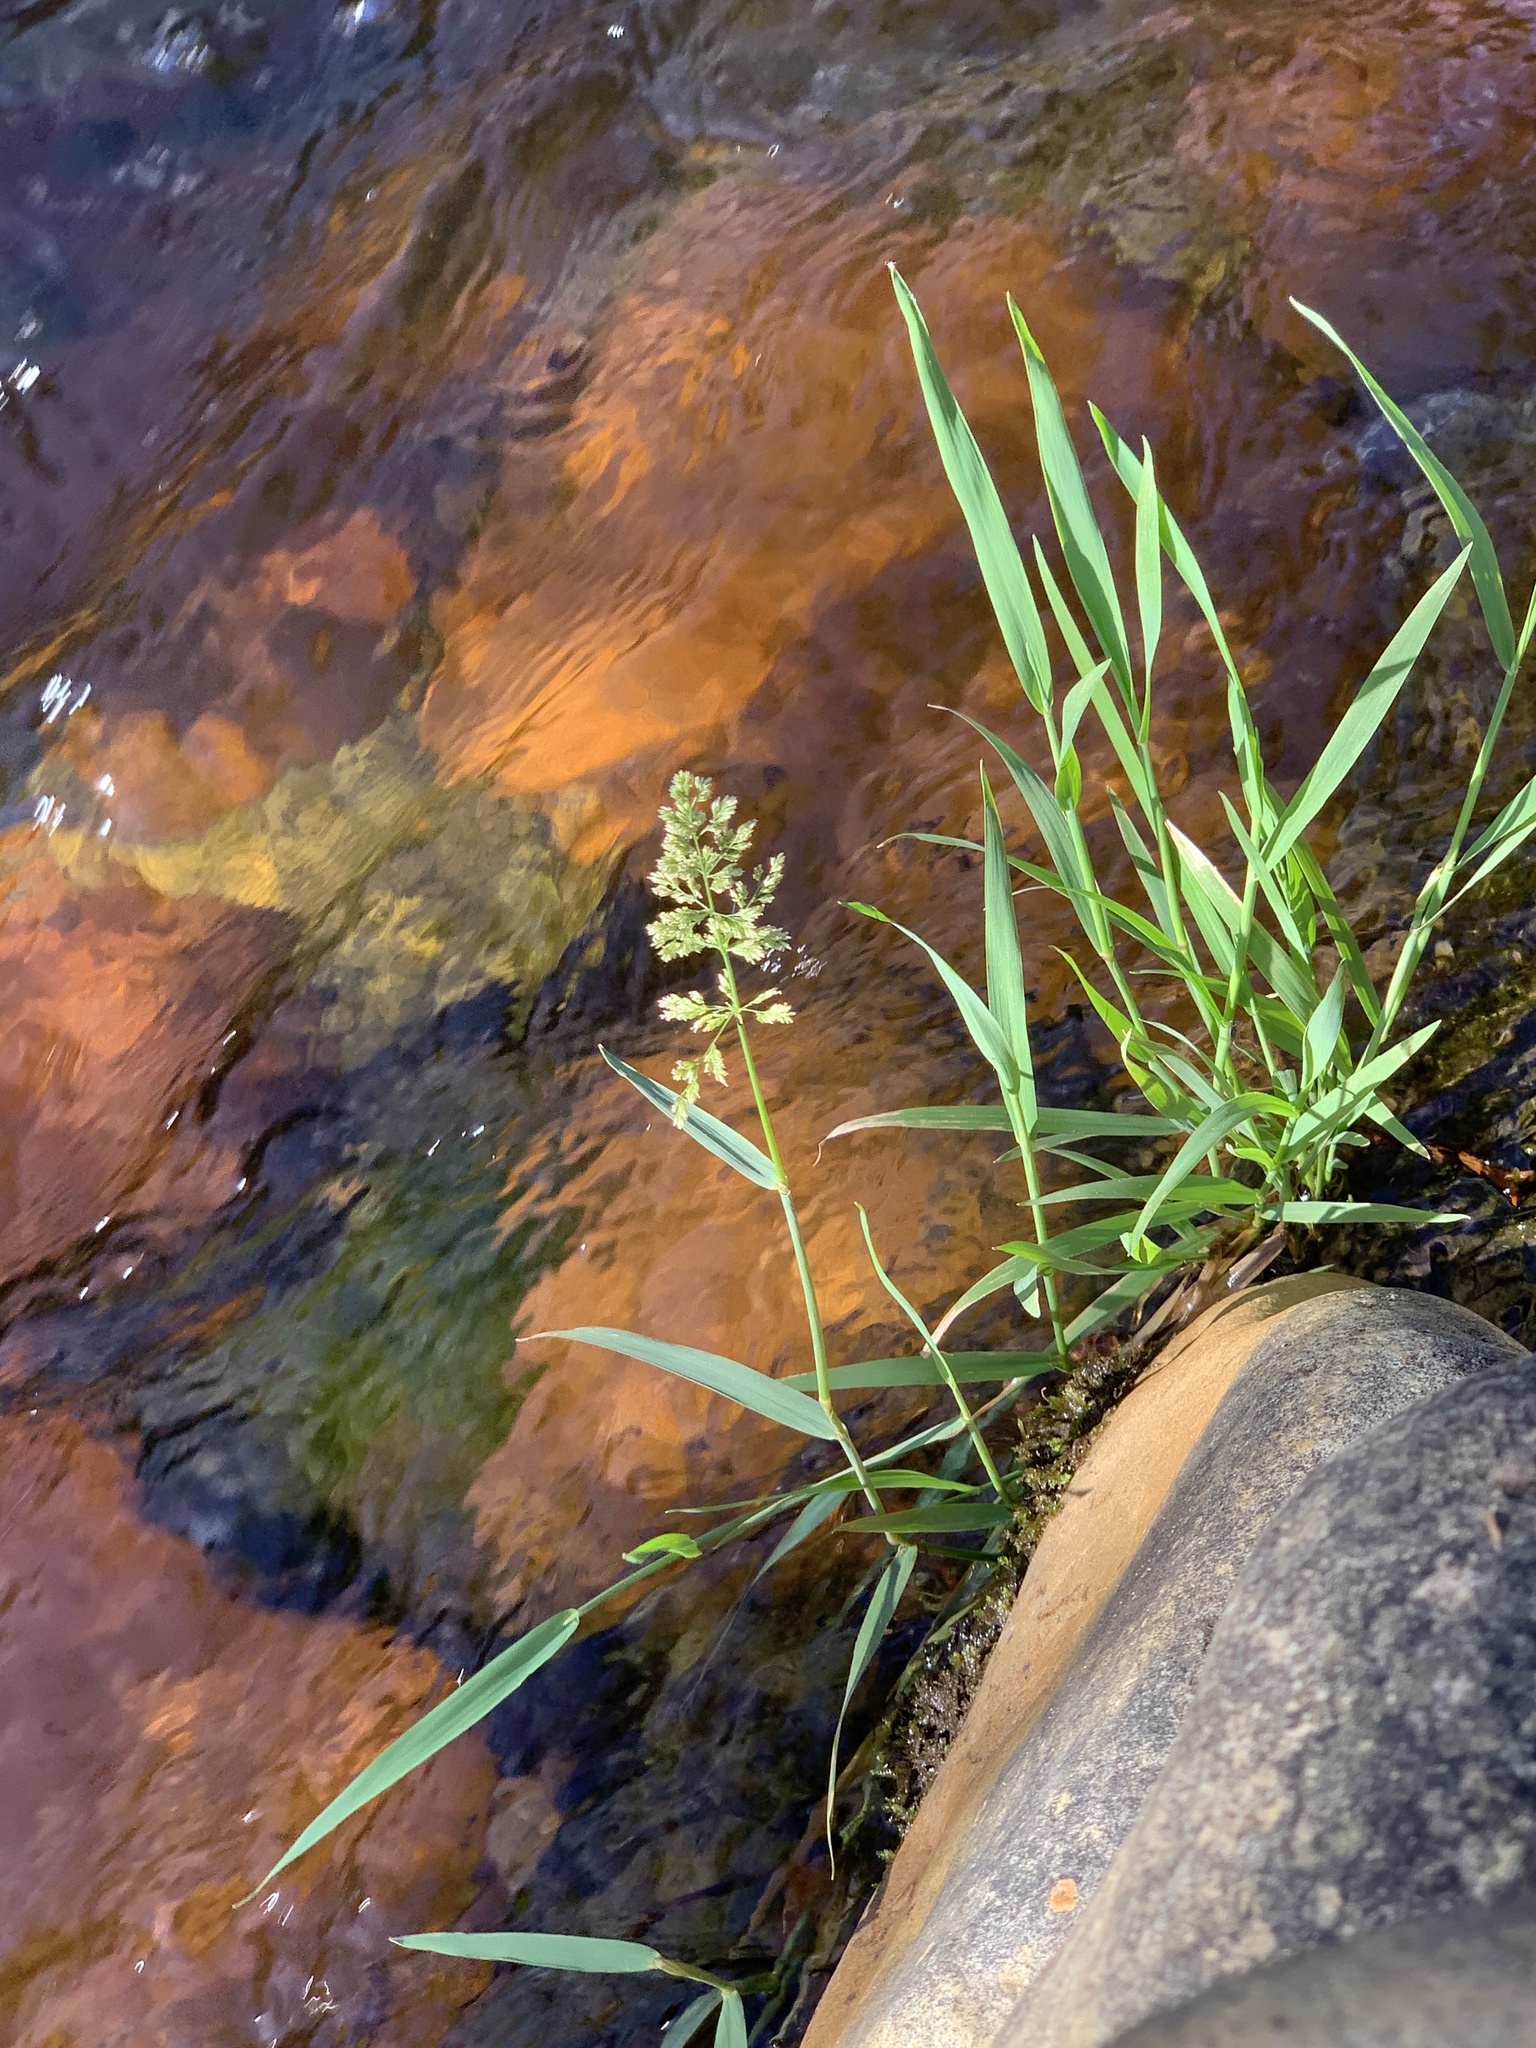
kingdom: Plantae
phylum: Tracheophyta
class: Liliopsida
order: Poales
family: Poaceae
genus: Polypogon
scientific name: Polypogon viridis
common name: Water bent
